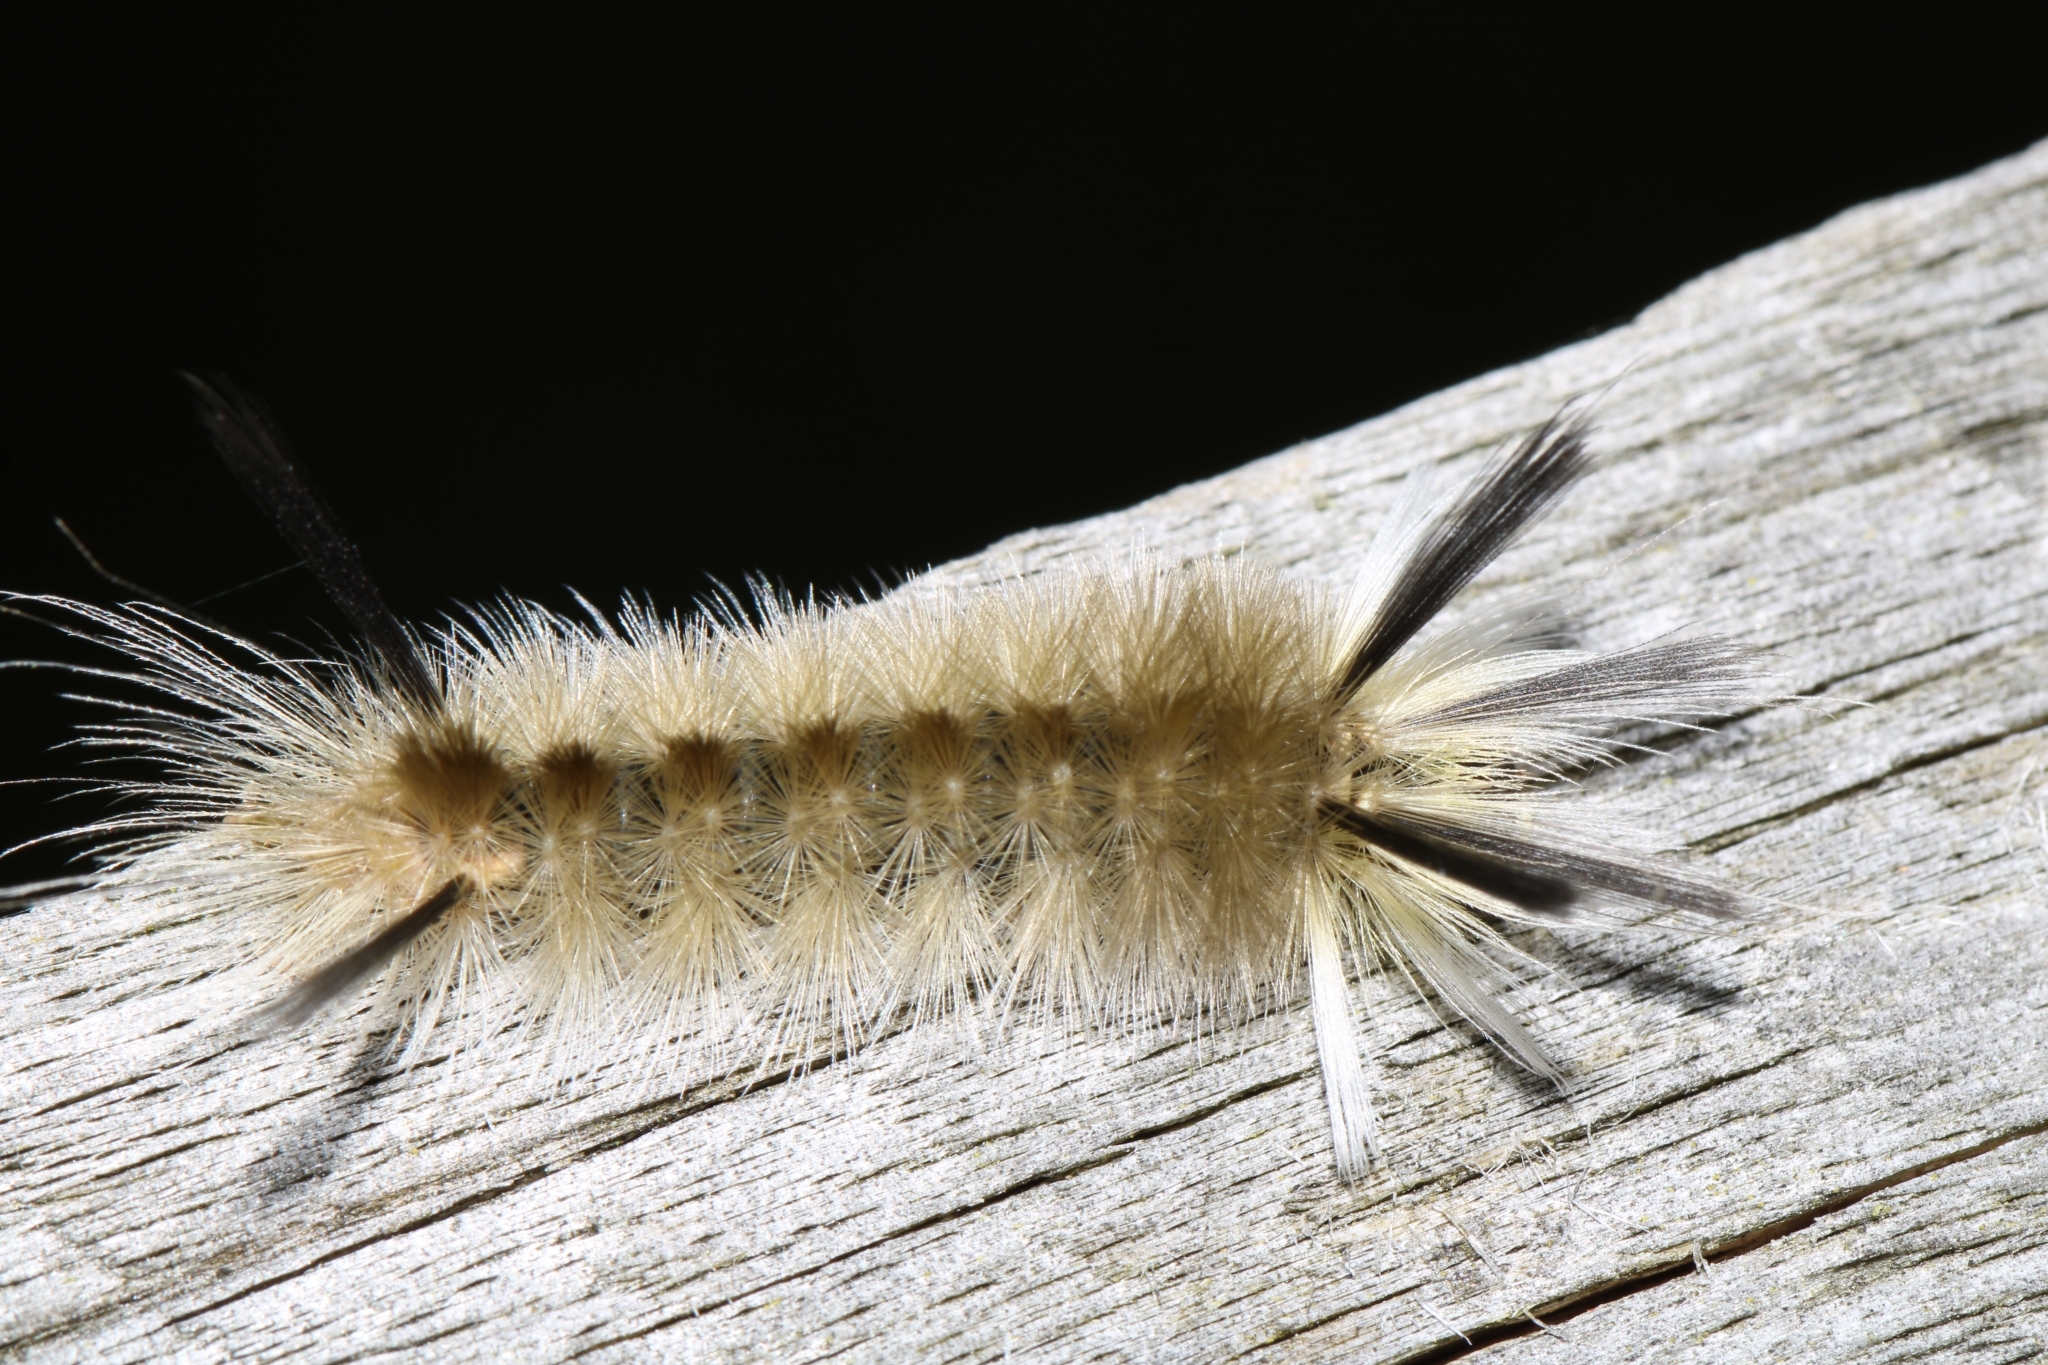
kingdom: Animalia
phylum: Arthropoda
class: Insecta
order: Lepidoptera
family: Erebidae
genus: Halysidota
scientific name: Halysidota tessellaris
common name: Banded tussock moth
